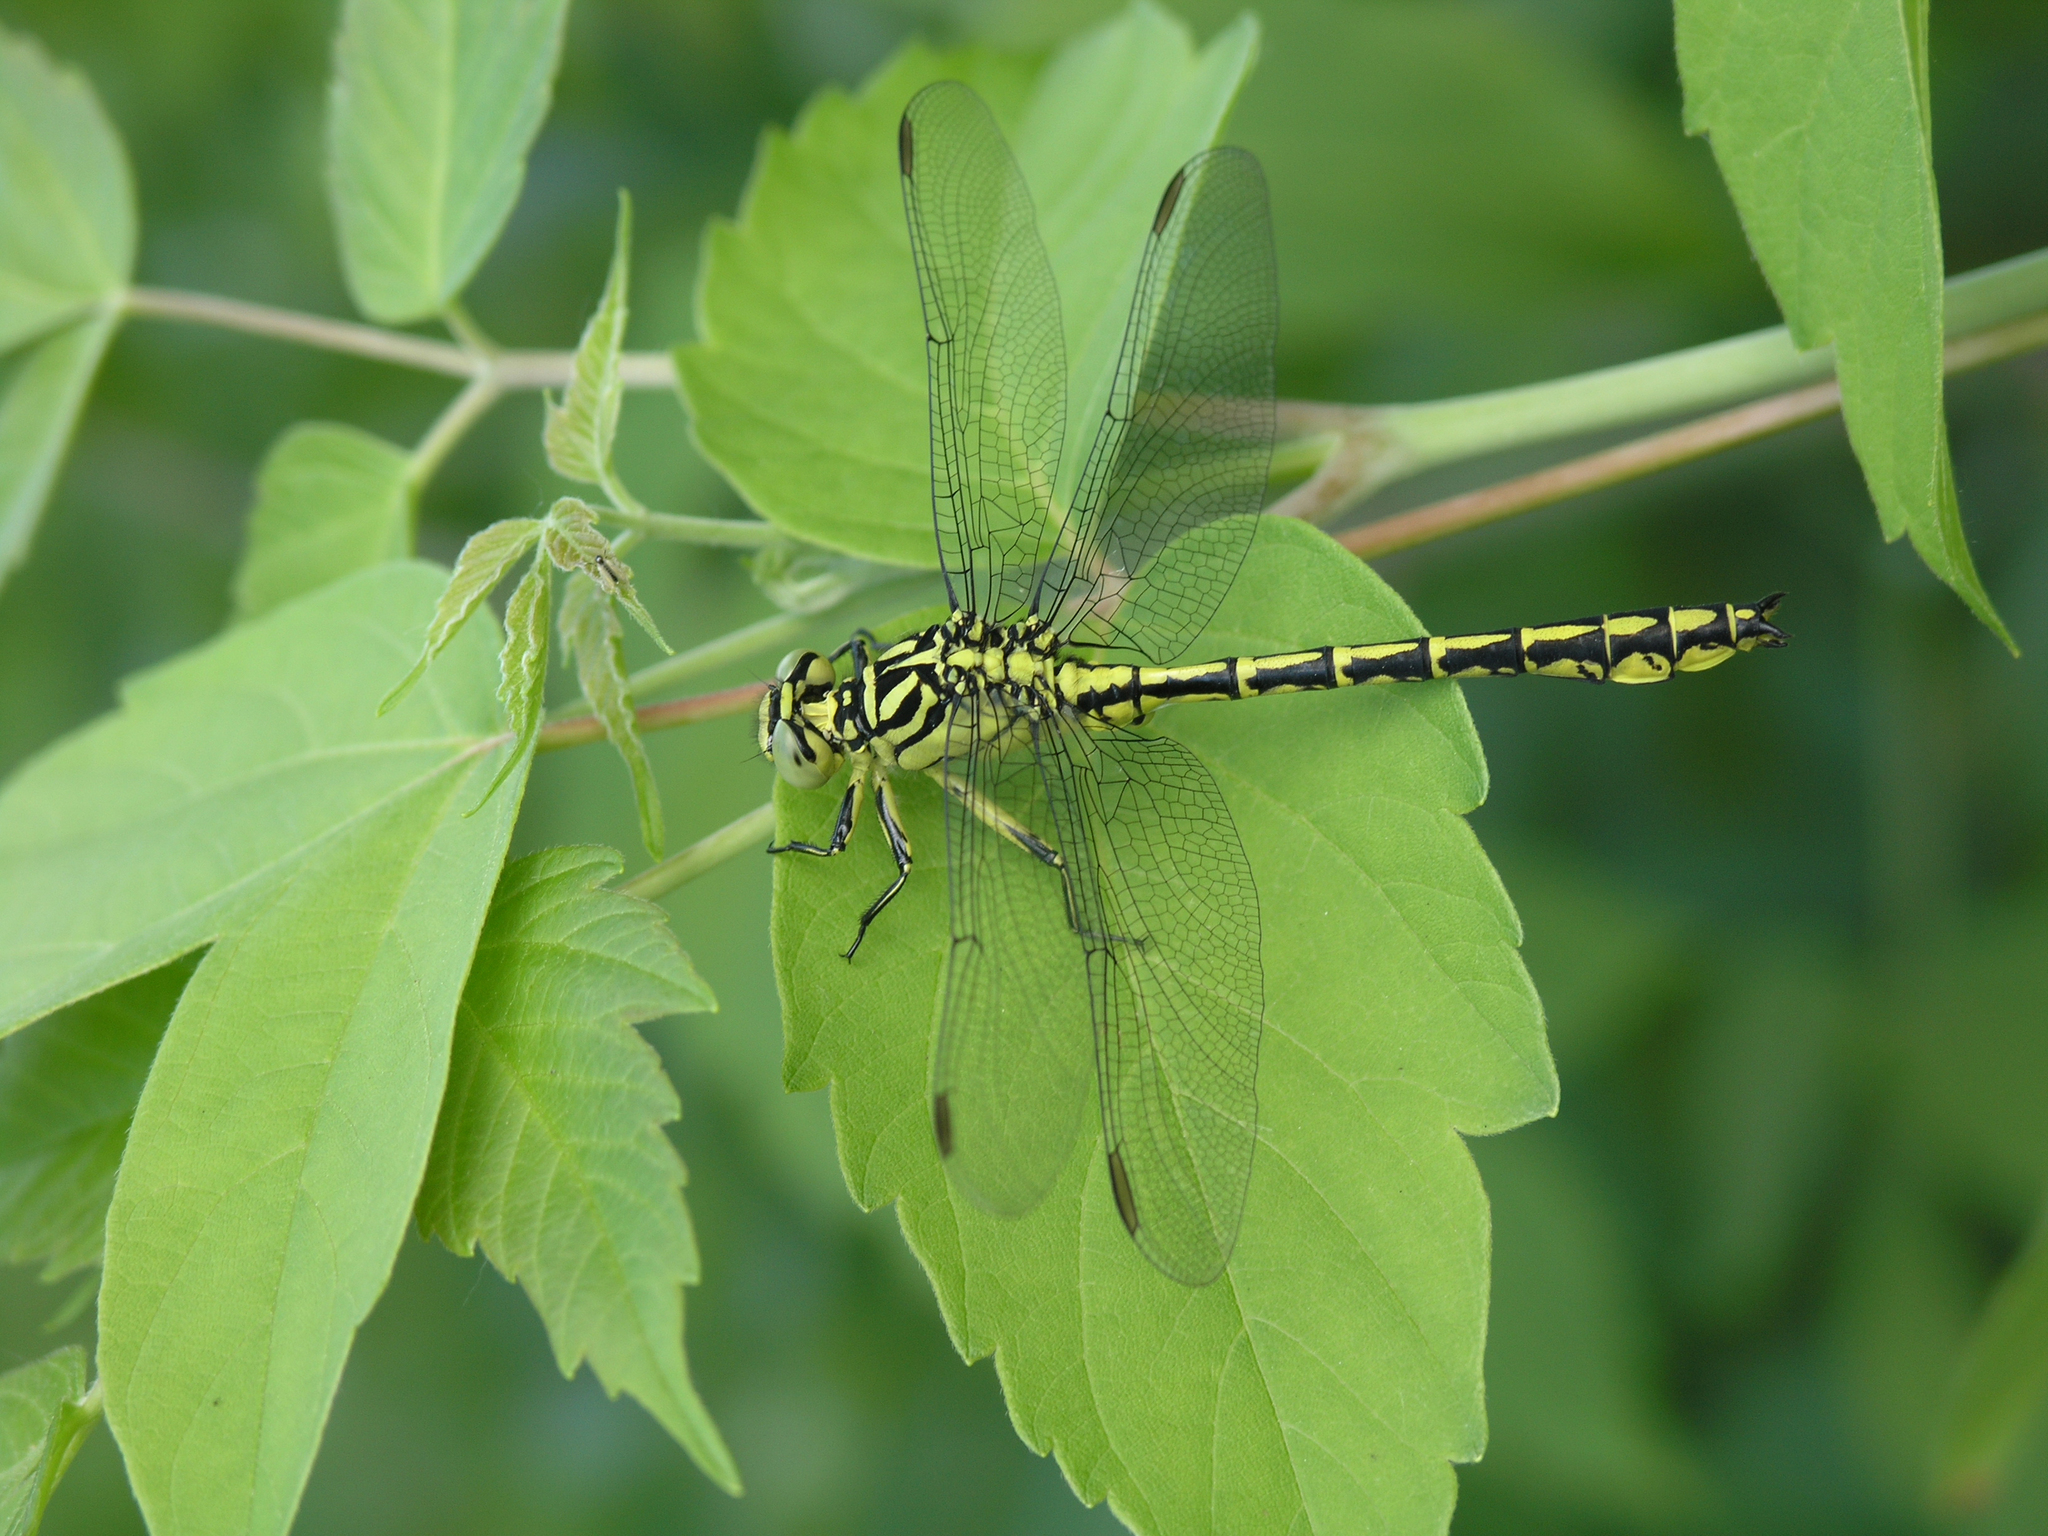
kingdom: Animalia
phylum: Arthropoda
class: Insecta
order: Odonata
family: Gomphidae
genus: Stylurus
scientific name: Stylurus flavipes
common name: River clubtail
